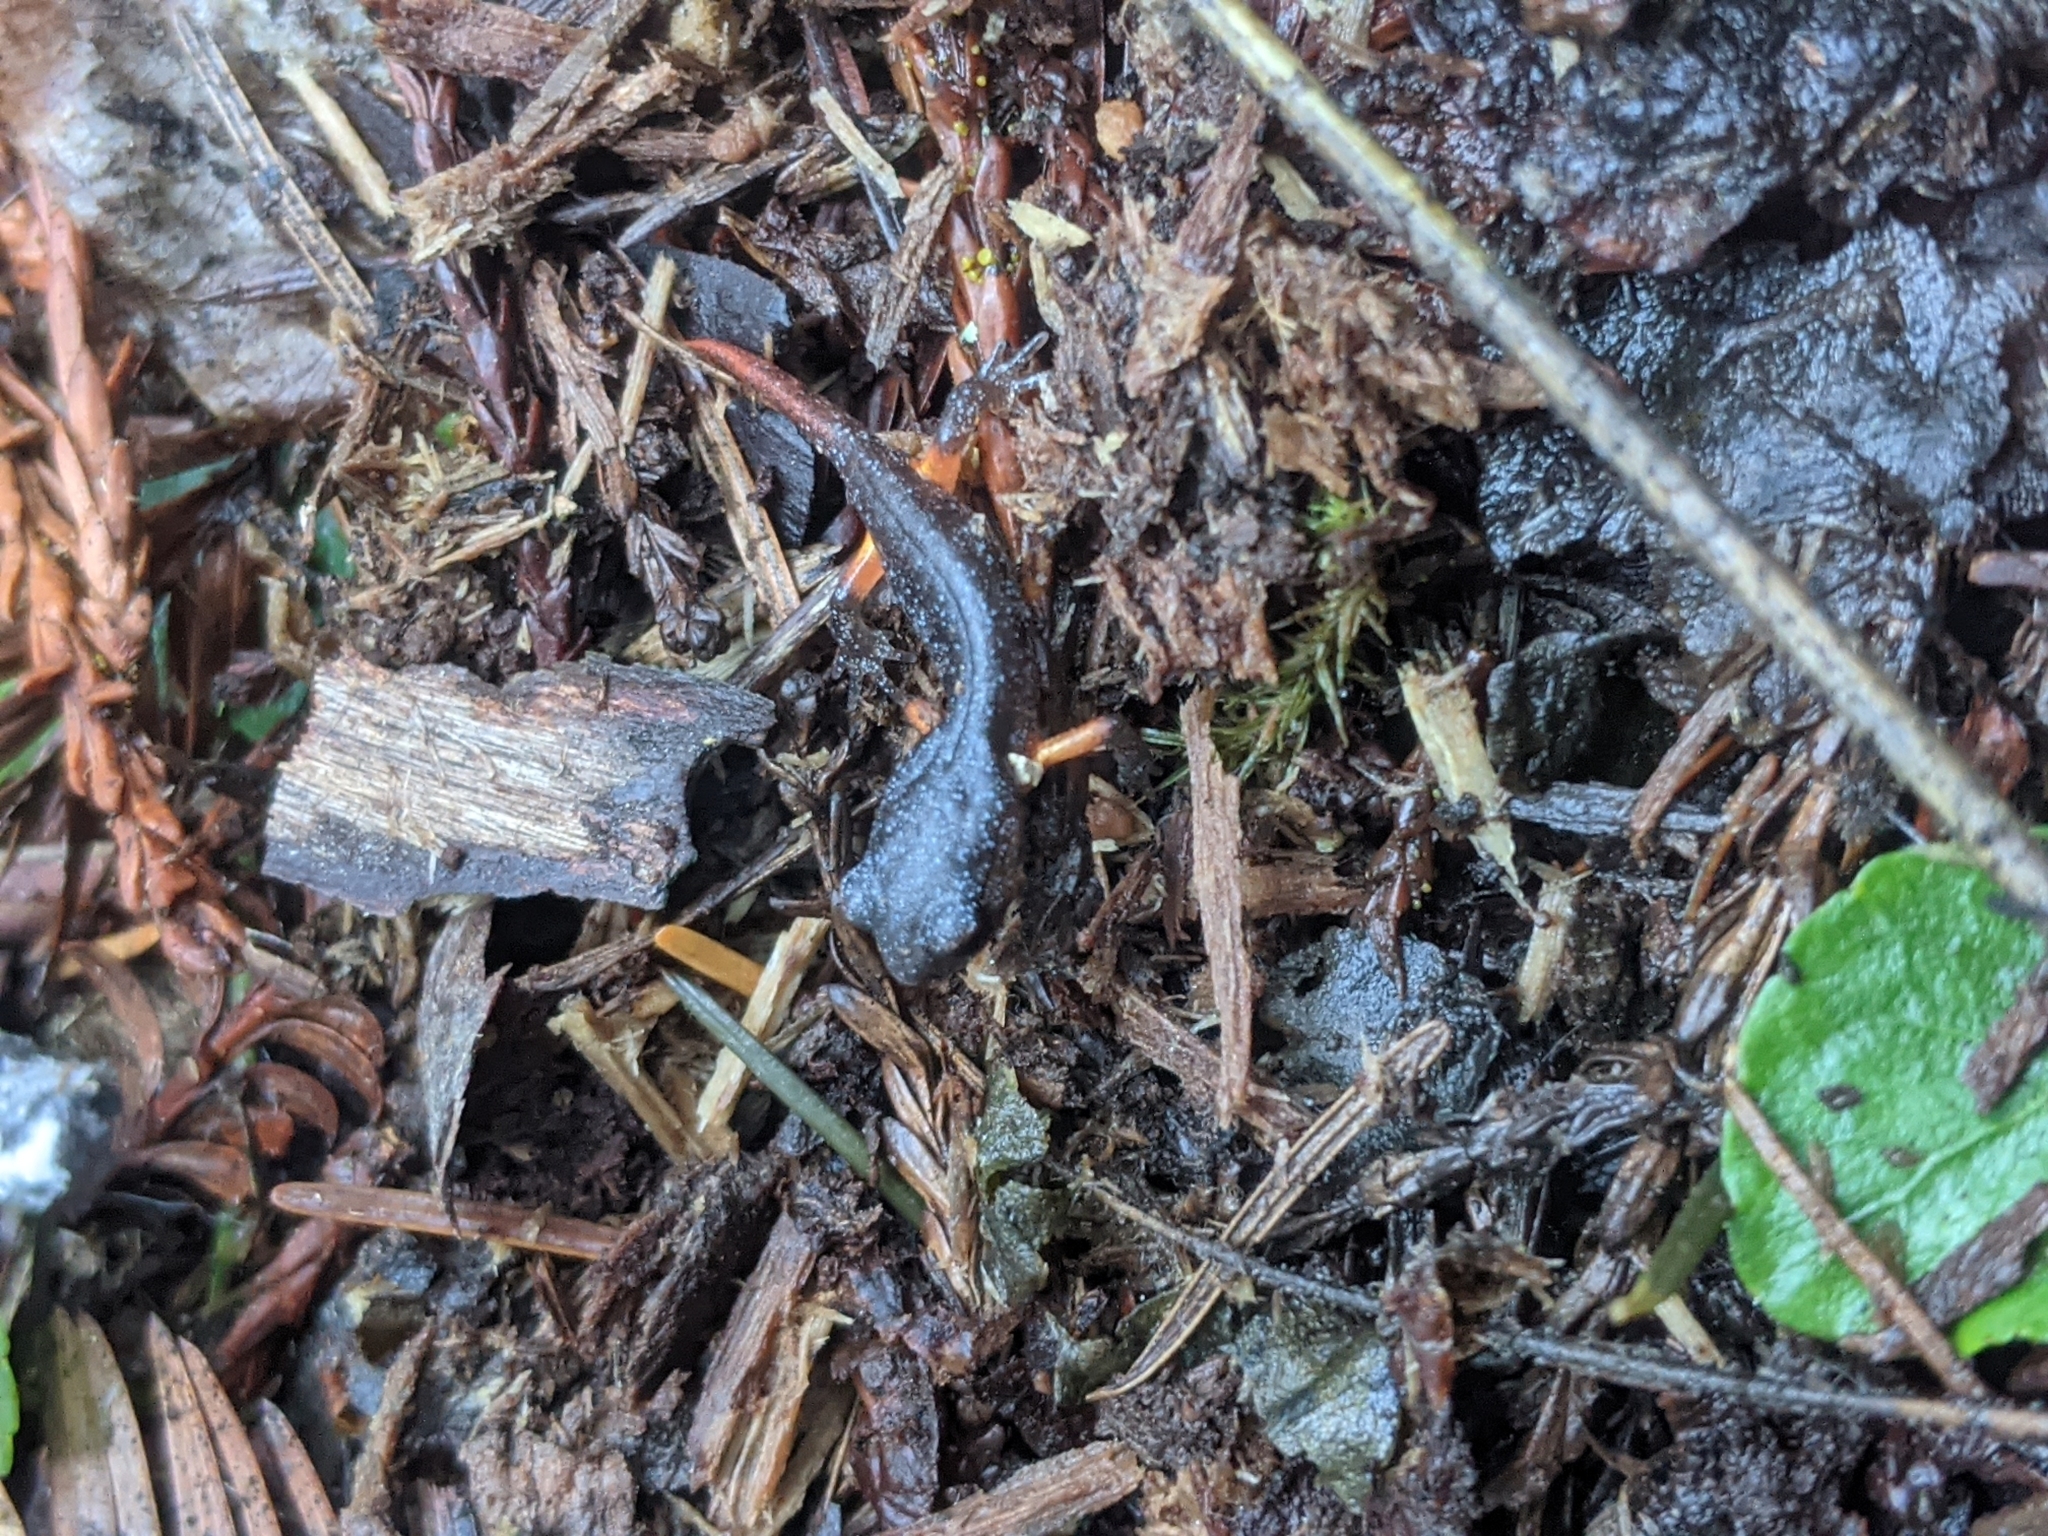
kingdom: Animalia
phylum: Chordata
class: Amphibia
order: Caudata
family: Plethodontidae
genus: Ensatina
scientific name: Ensatina eschscholtzii
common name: Ensatina
